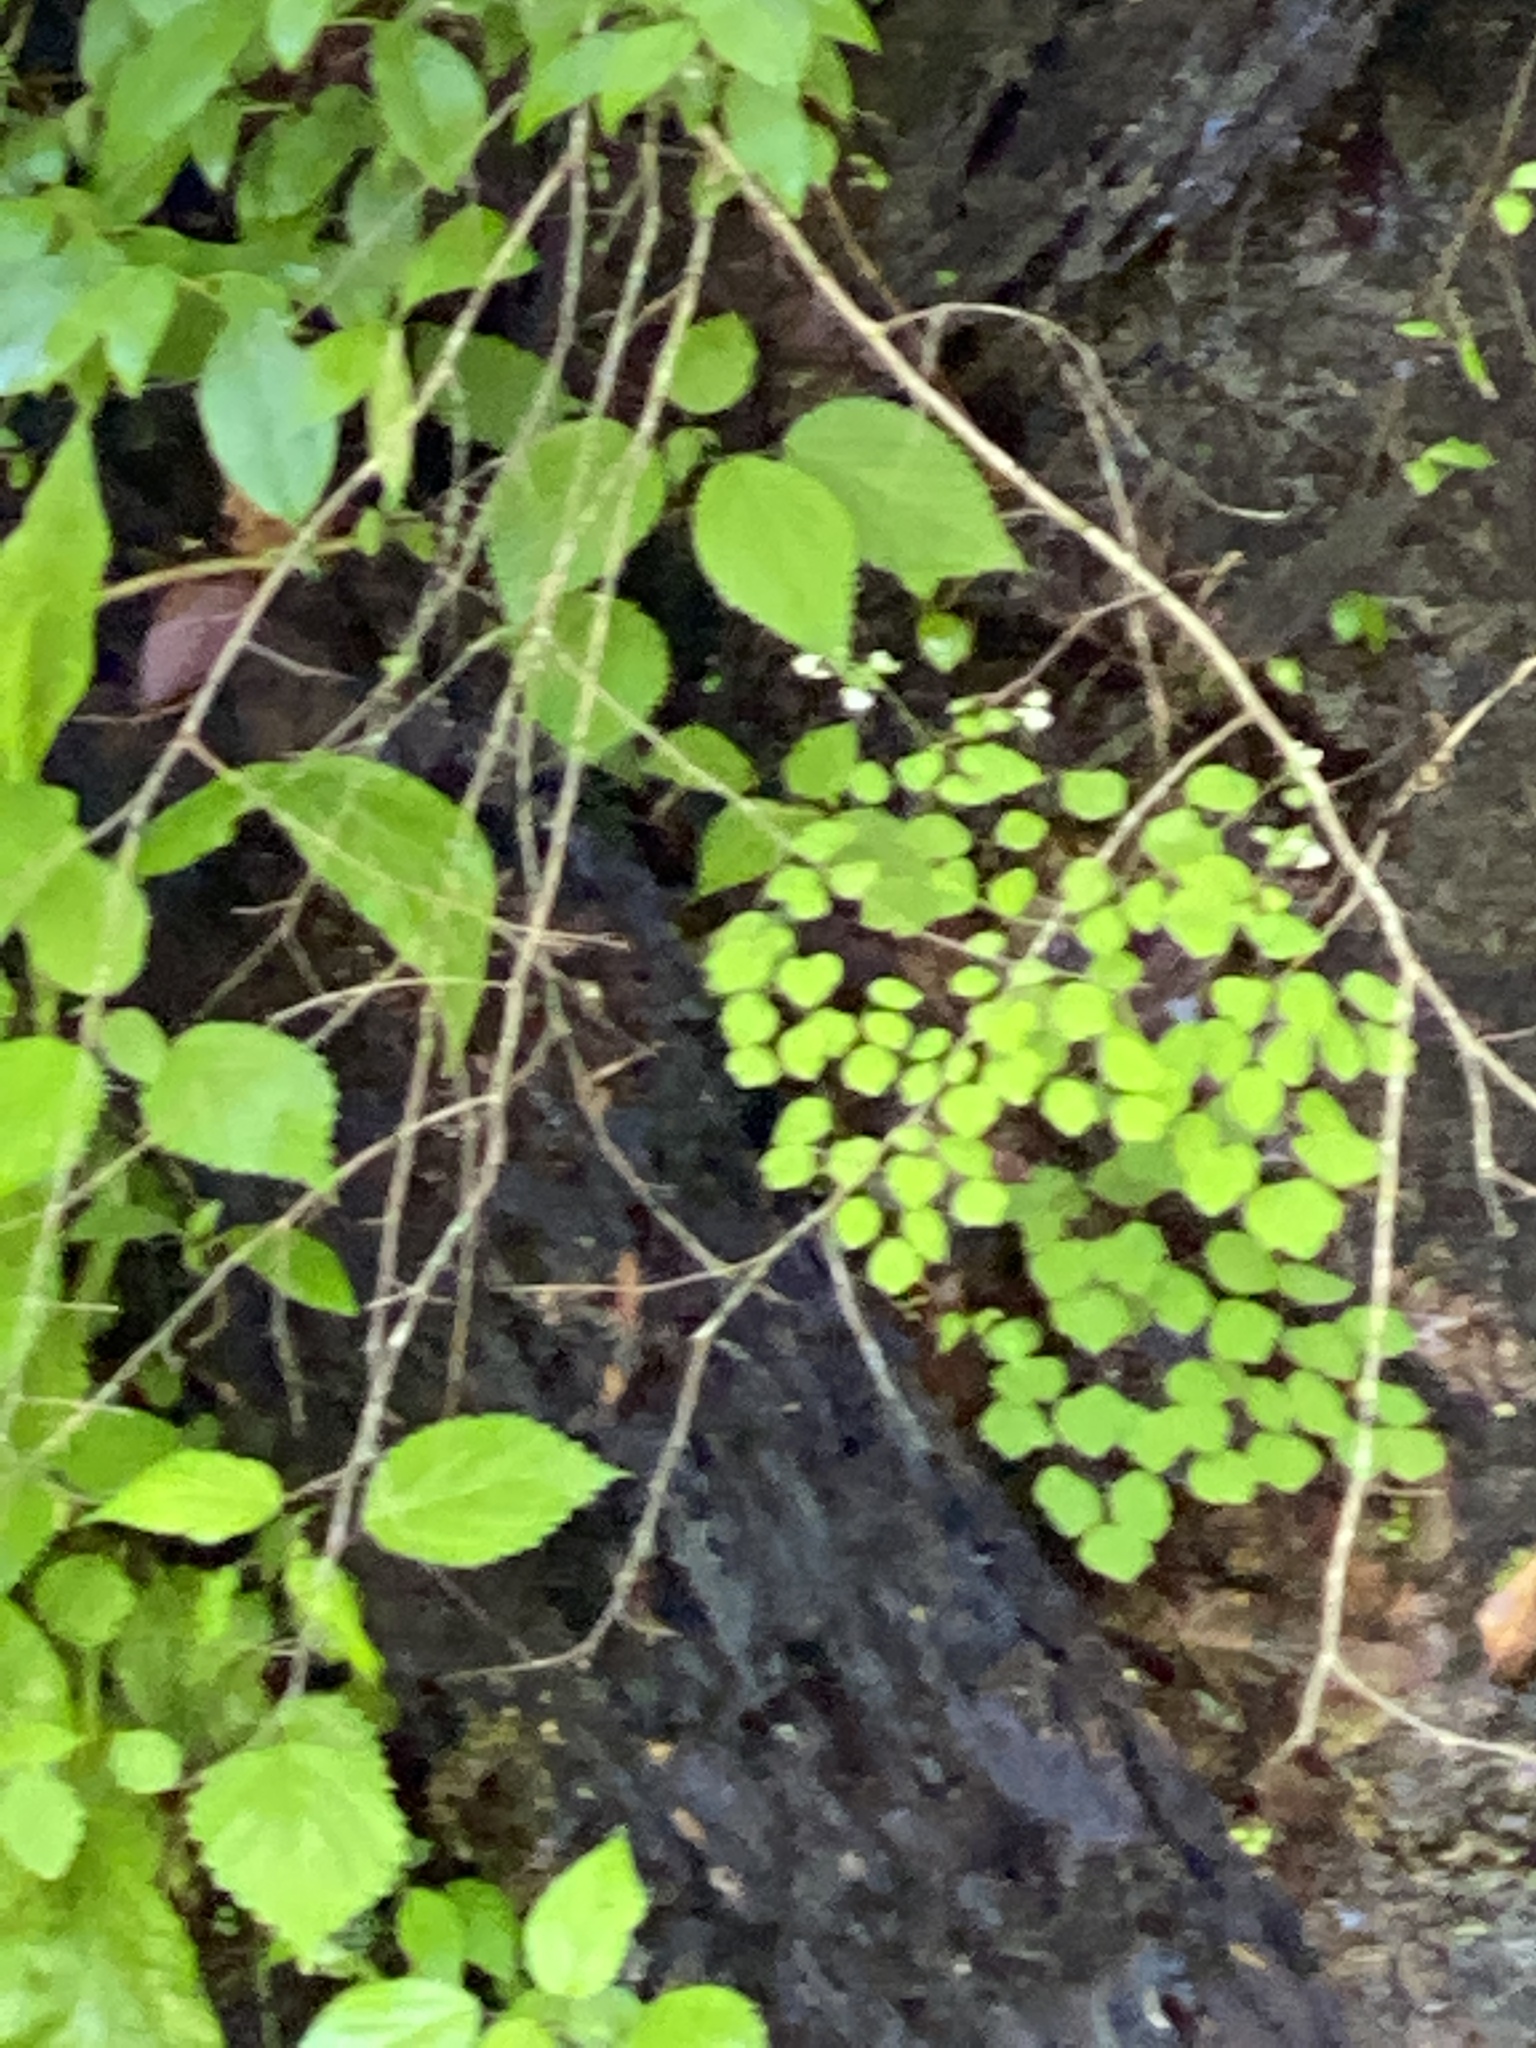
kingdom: Plantae
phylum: Tracheophyta
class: Magnoliopsida
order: Ranunculales
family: Ranunculaceae
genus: Thalictrum
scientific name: Thalictrum clavatum
